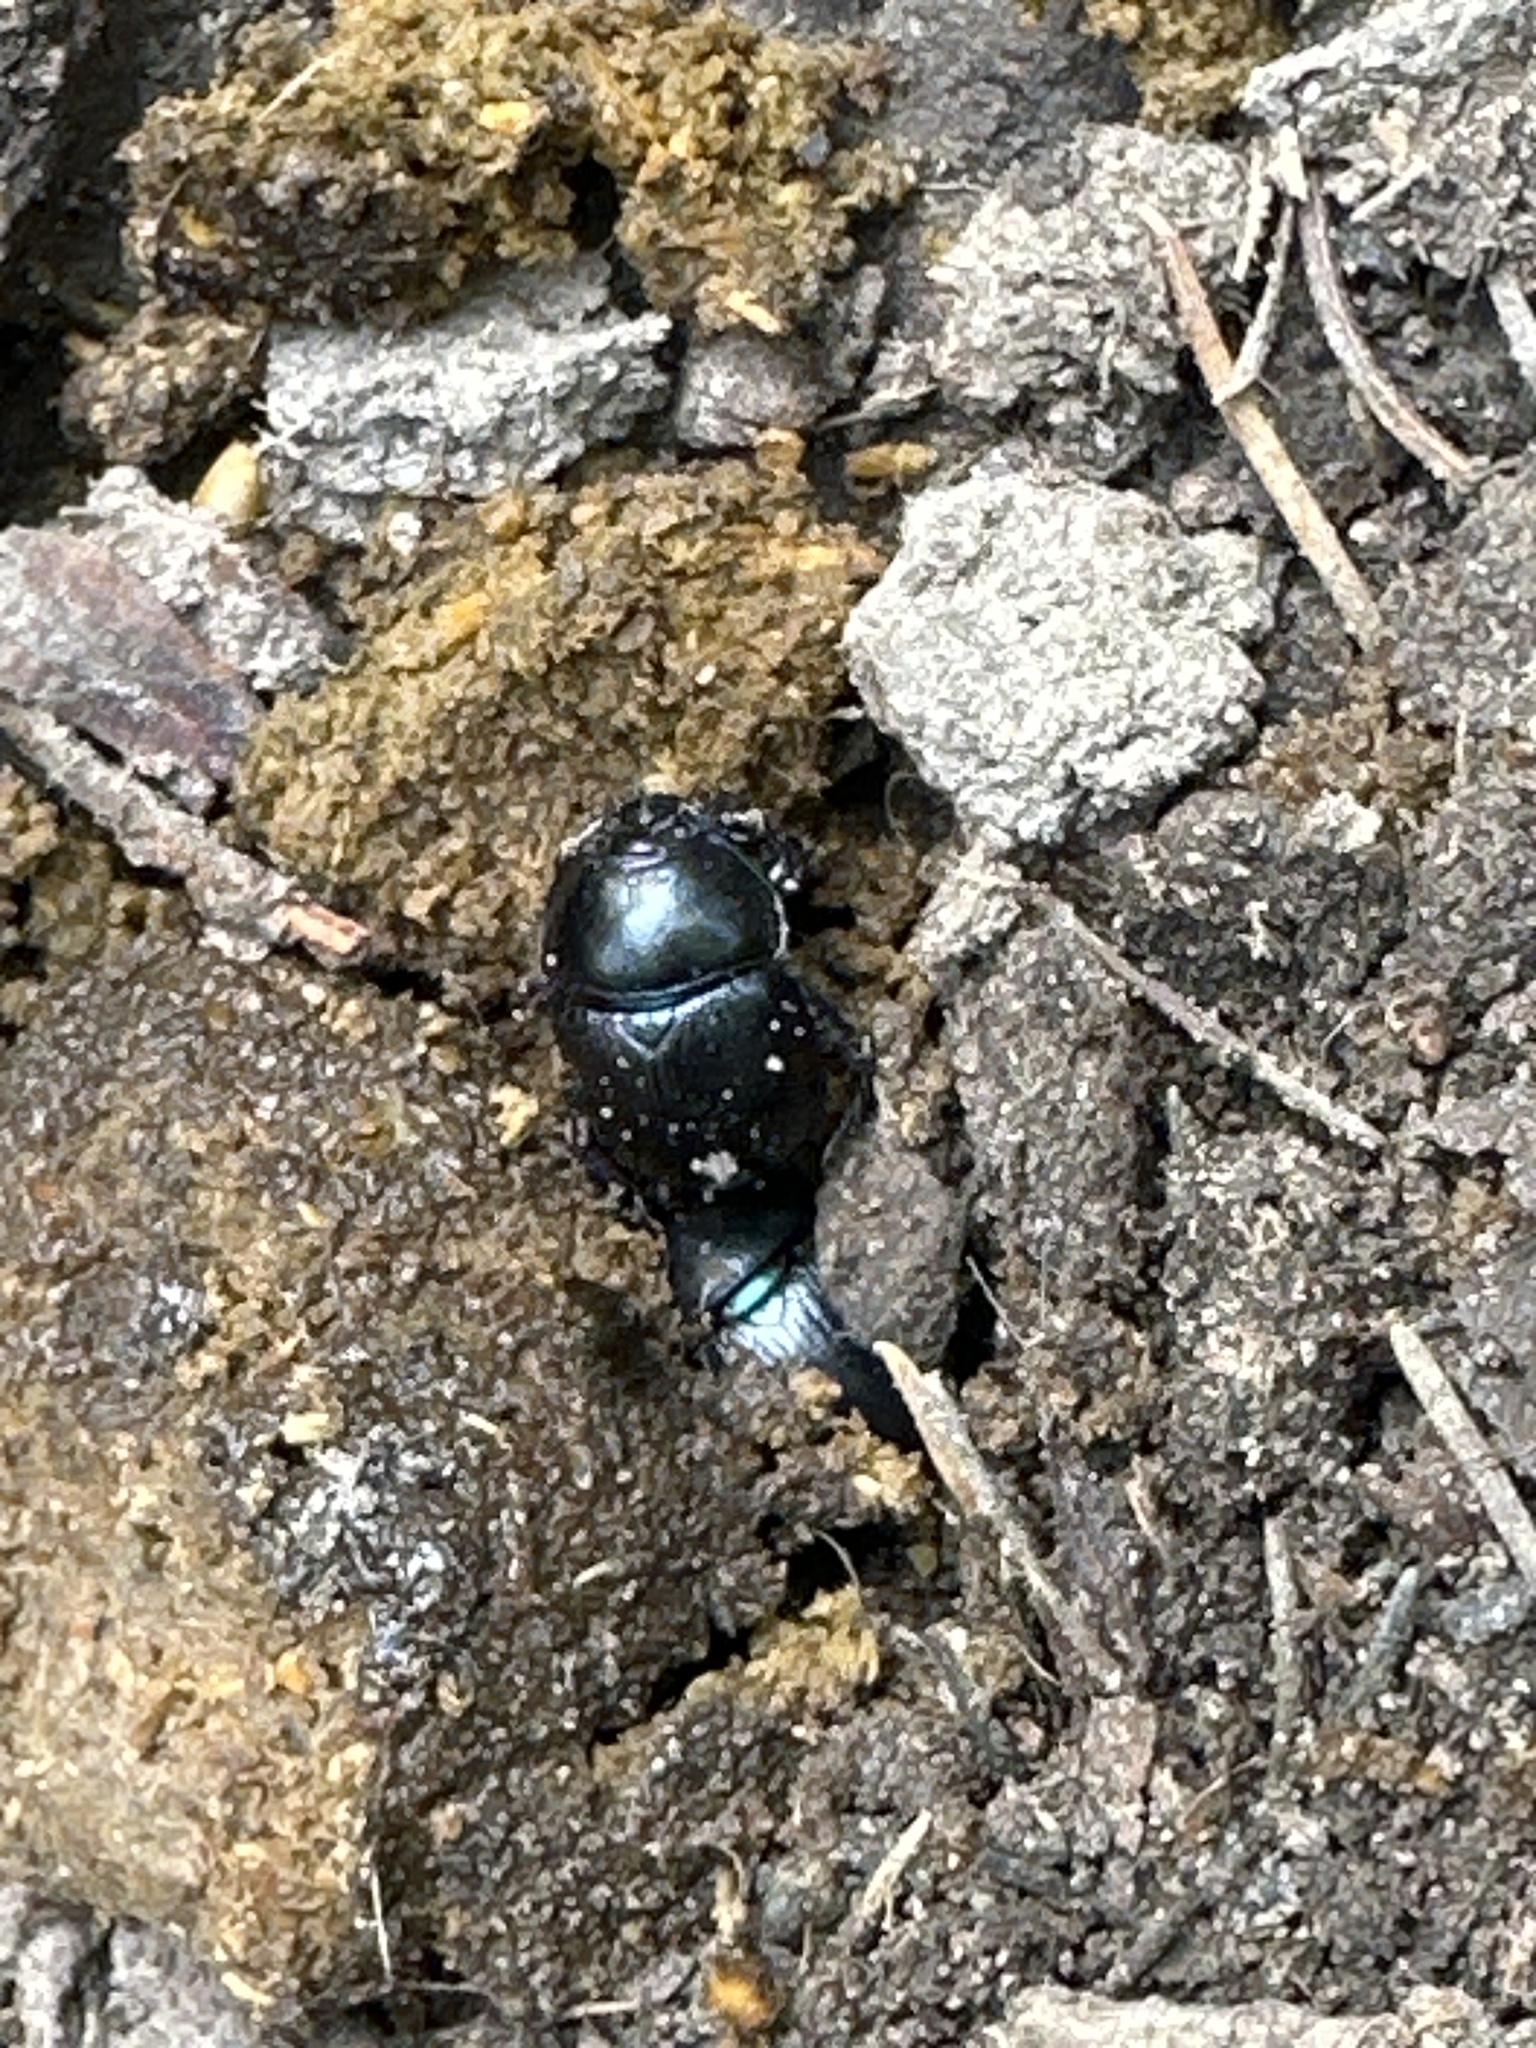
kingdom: Animalia
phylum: Arthropoda
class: Insecta
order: Coleoptera
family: Geotrupidae
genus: Anoplotrupes
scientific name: Anoplotrupes stercorosus
